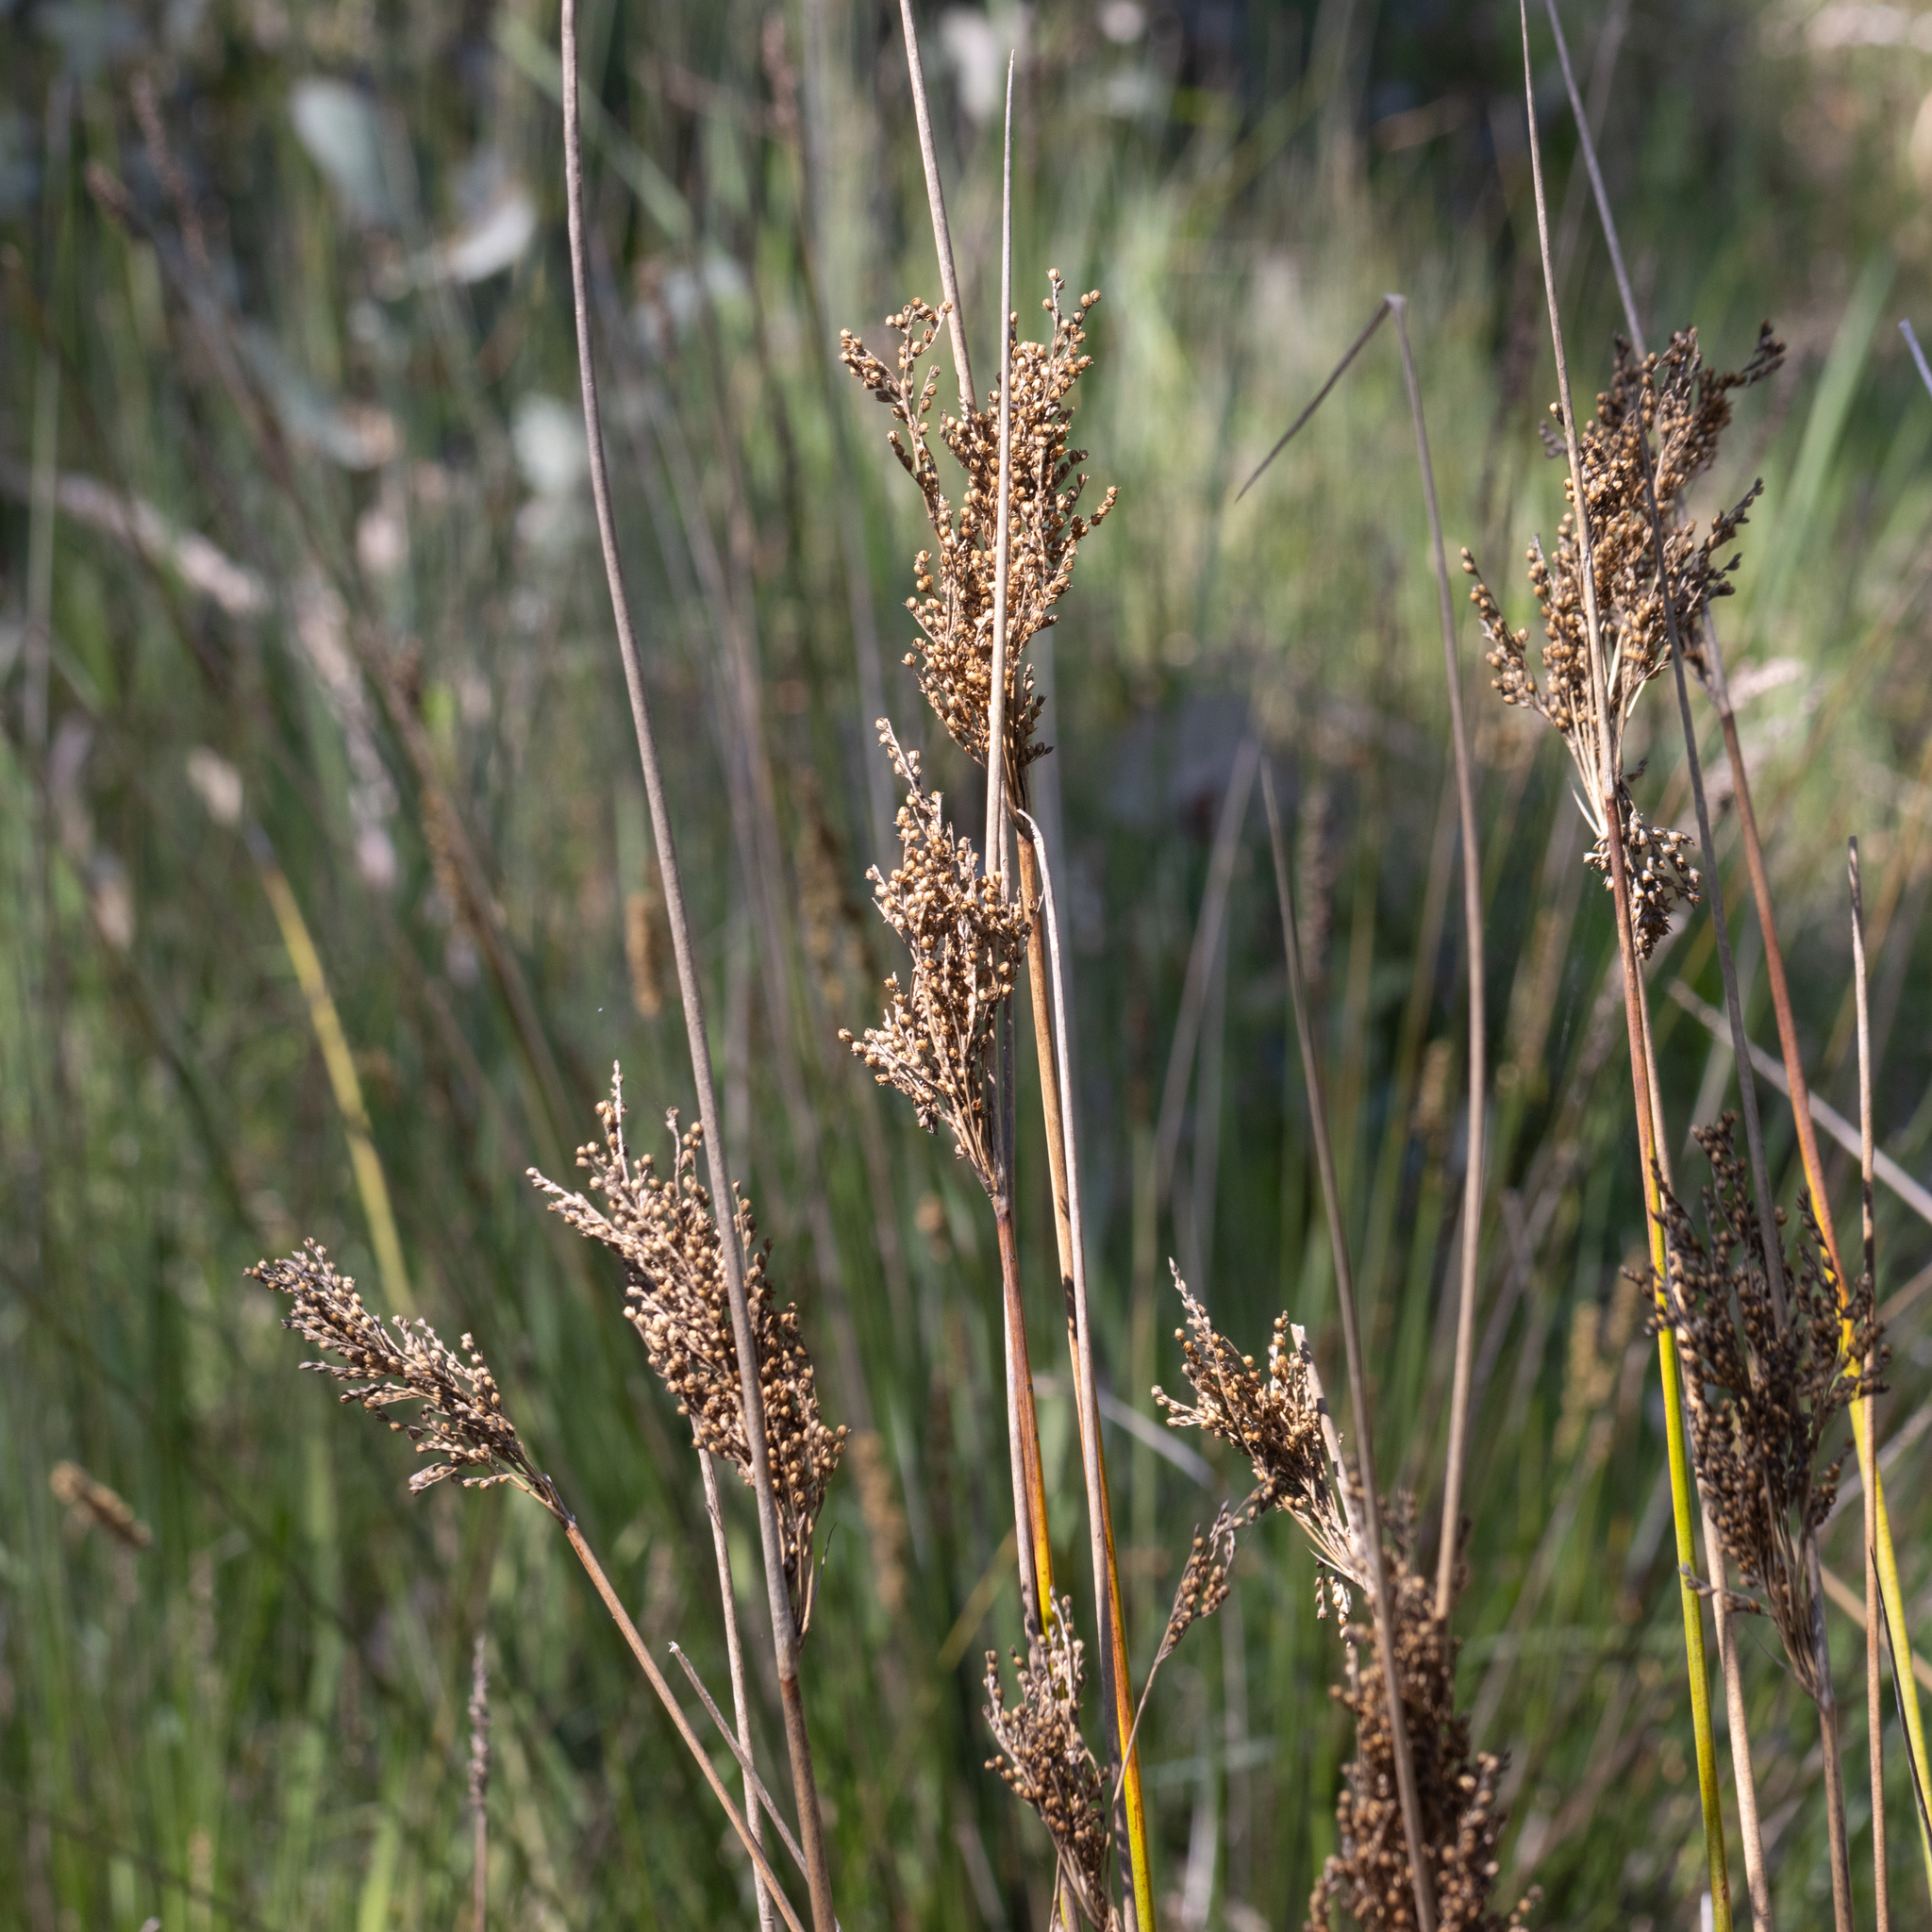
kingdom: Plantae
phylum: Tracheophyta
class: Liliopsida
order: Poales
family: Juncaceae
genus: Juncus
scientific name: Juncus pallidus
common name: Great soft-rush
